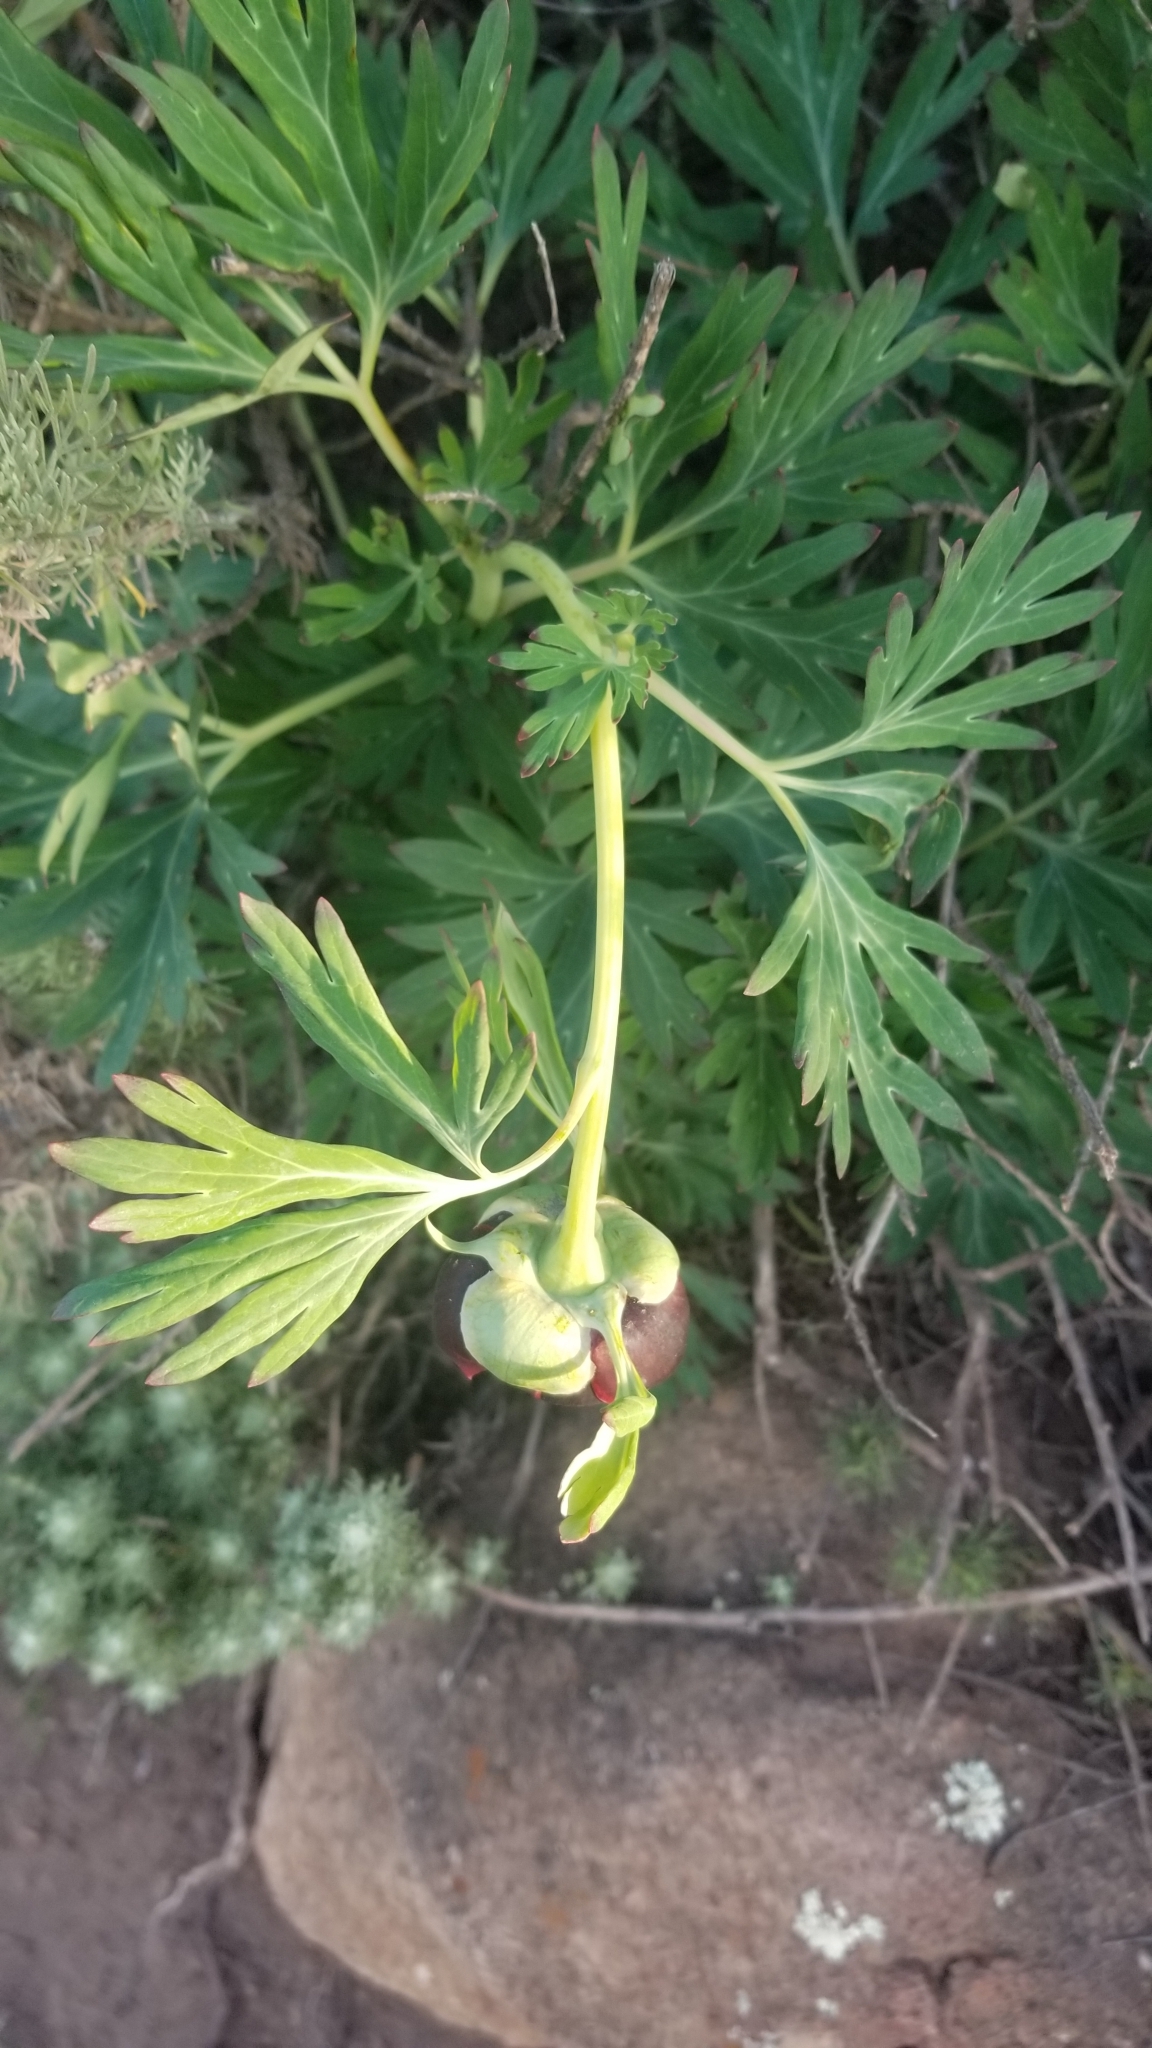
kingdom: Plantae
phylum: Tracheophyta
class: Magnoliopsida
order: Saxifragales
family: Paeoniaceae
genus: Paeonia
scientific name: Paeonia californica
